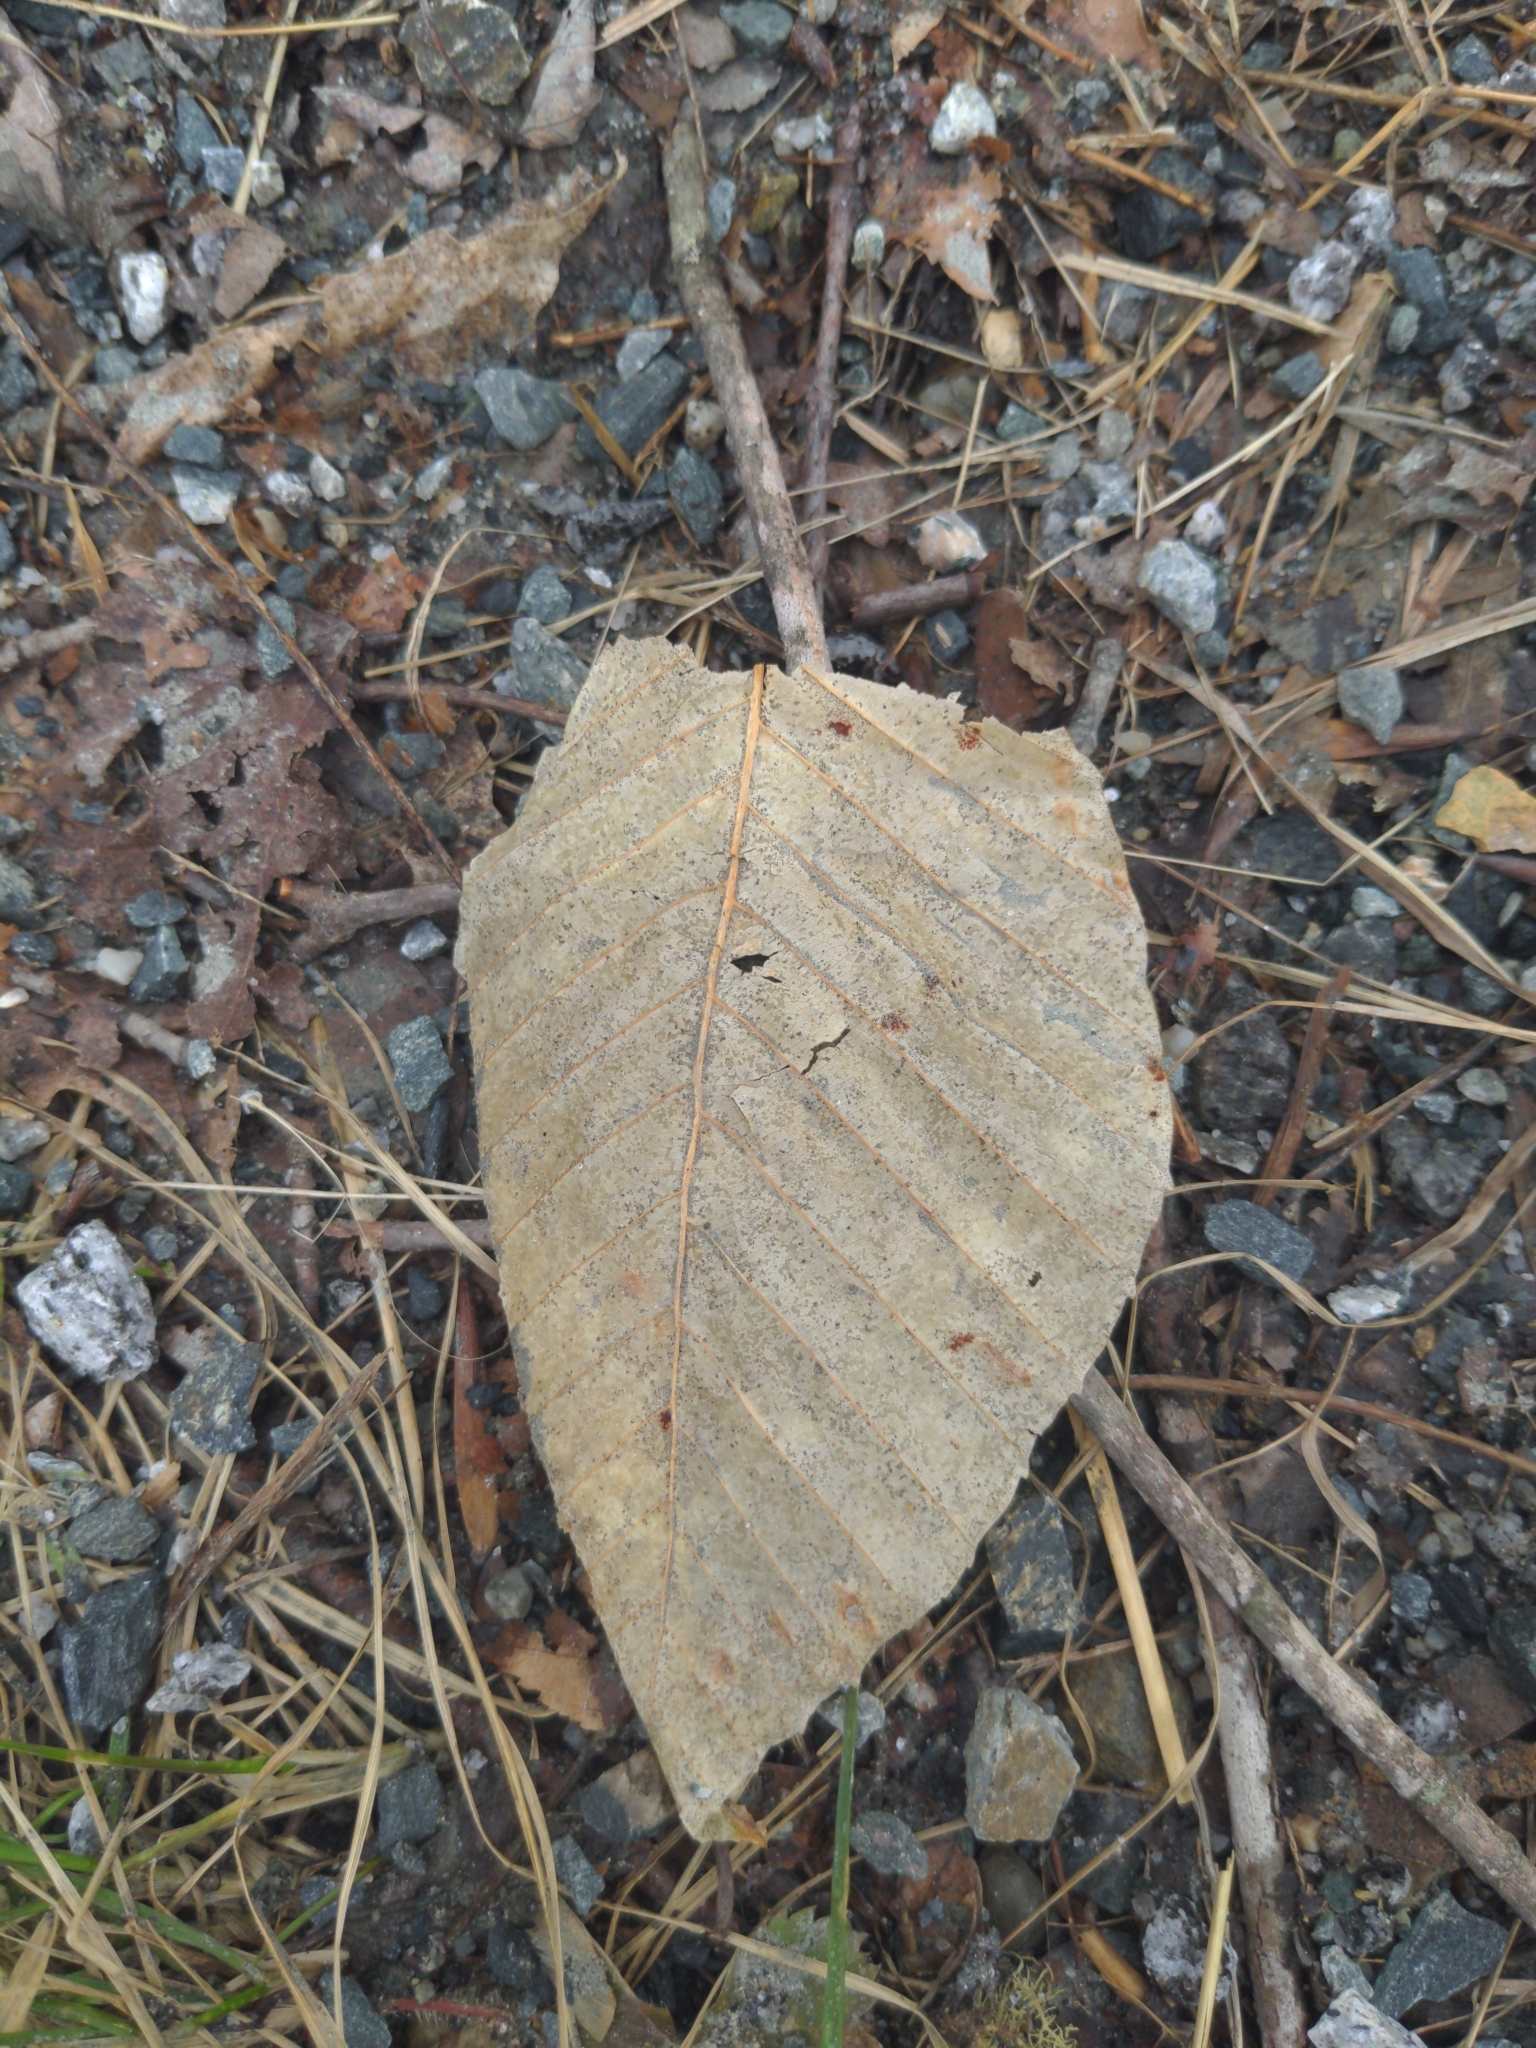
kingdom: Plantae
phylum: Tracheophyta
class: Magnoliopsida
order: Fagales
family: Fagaceae
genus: Fagus
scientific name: Fagus grandifolia
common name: American beech
